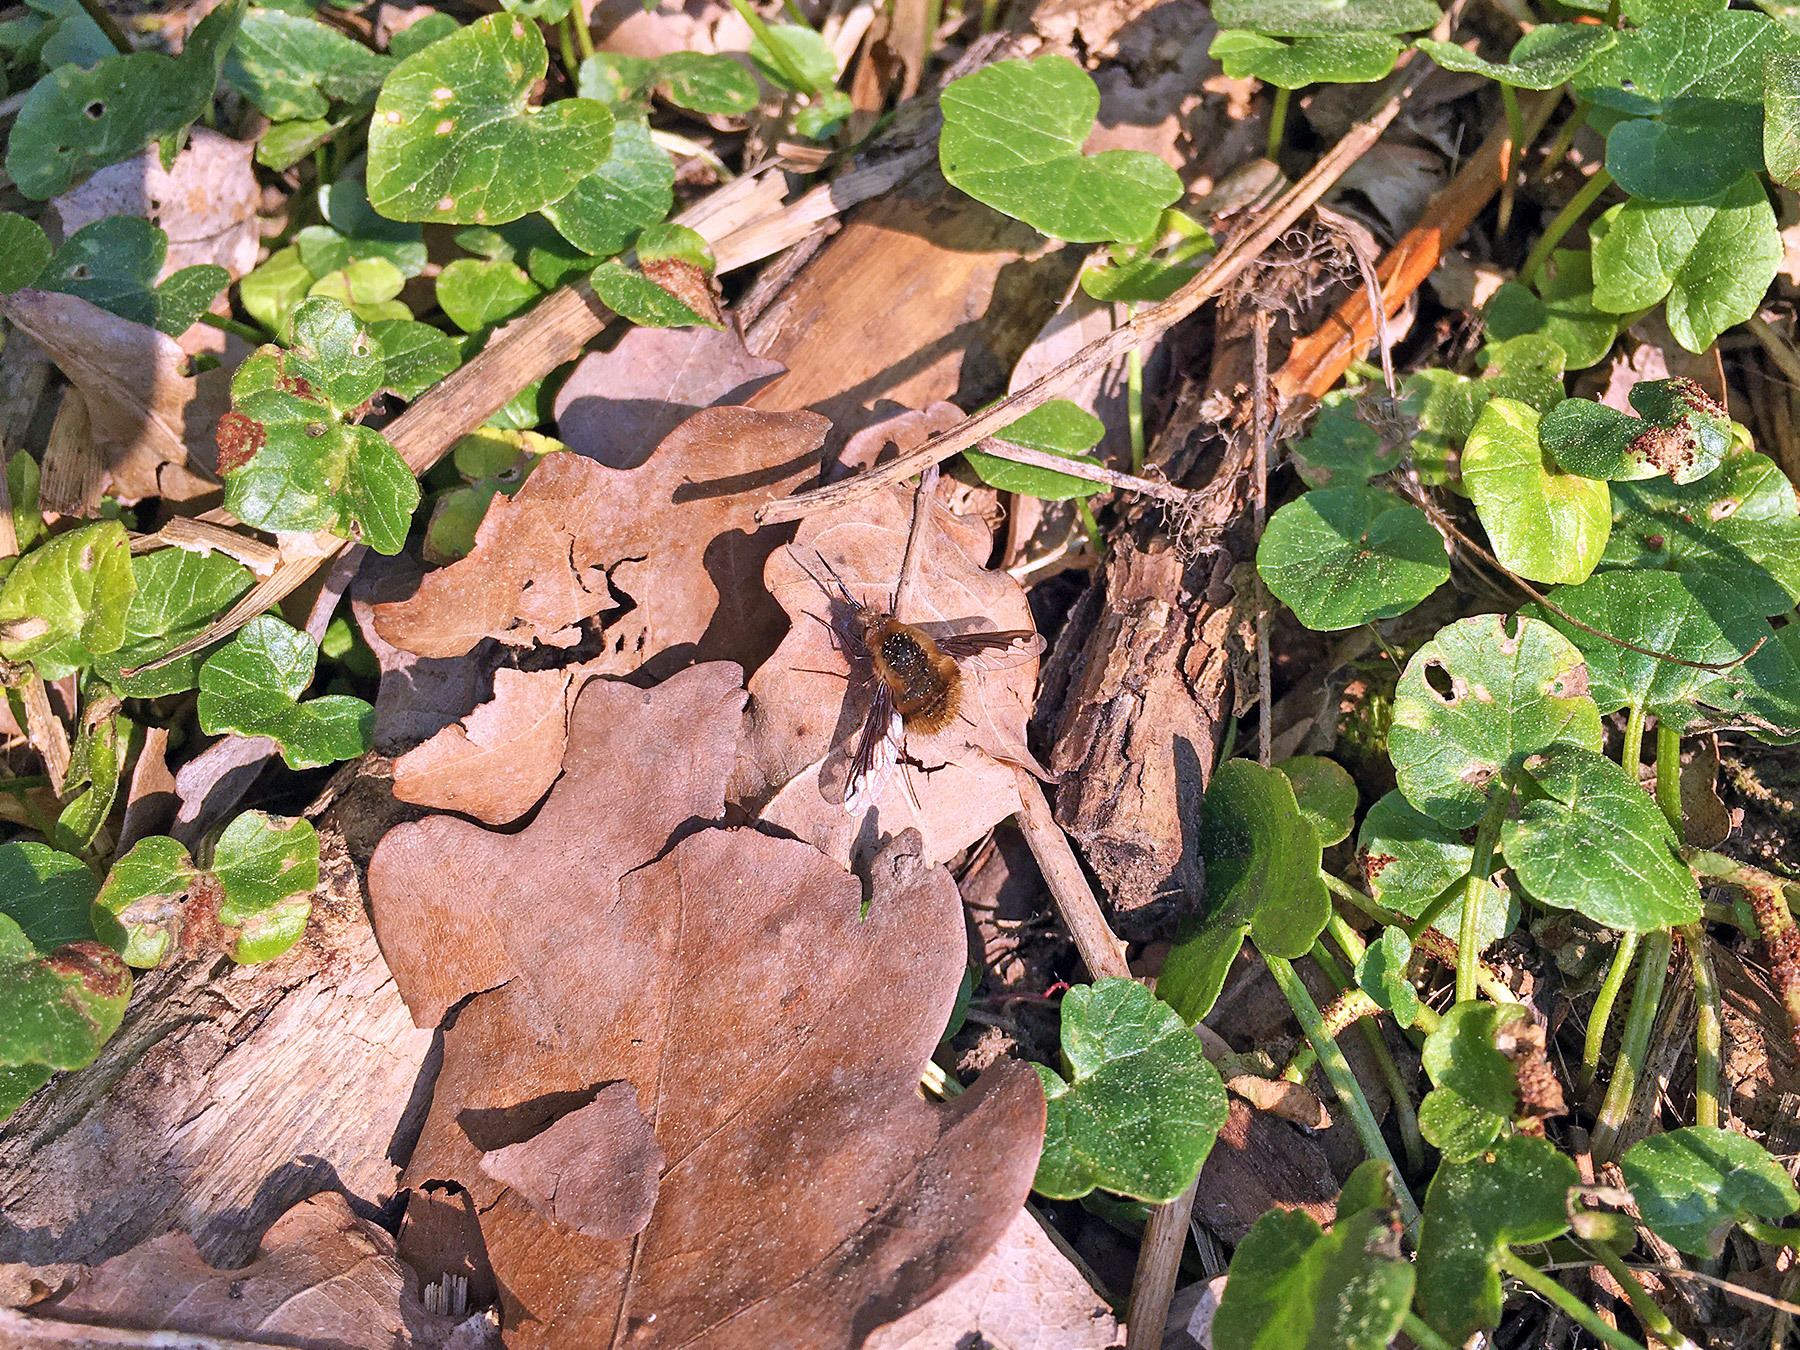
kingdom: Animalia
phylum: Arthropoda
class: Insecta
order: Diptera
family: Bombyliidae
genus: Bombylius
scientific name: Bombylius major
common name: Bee fly
